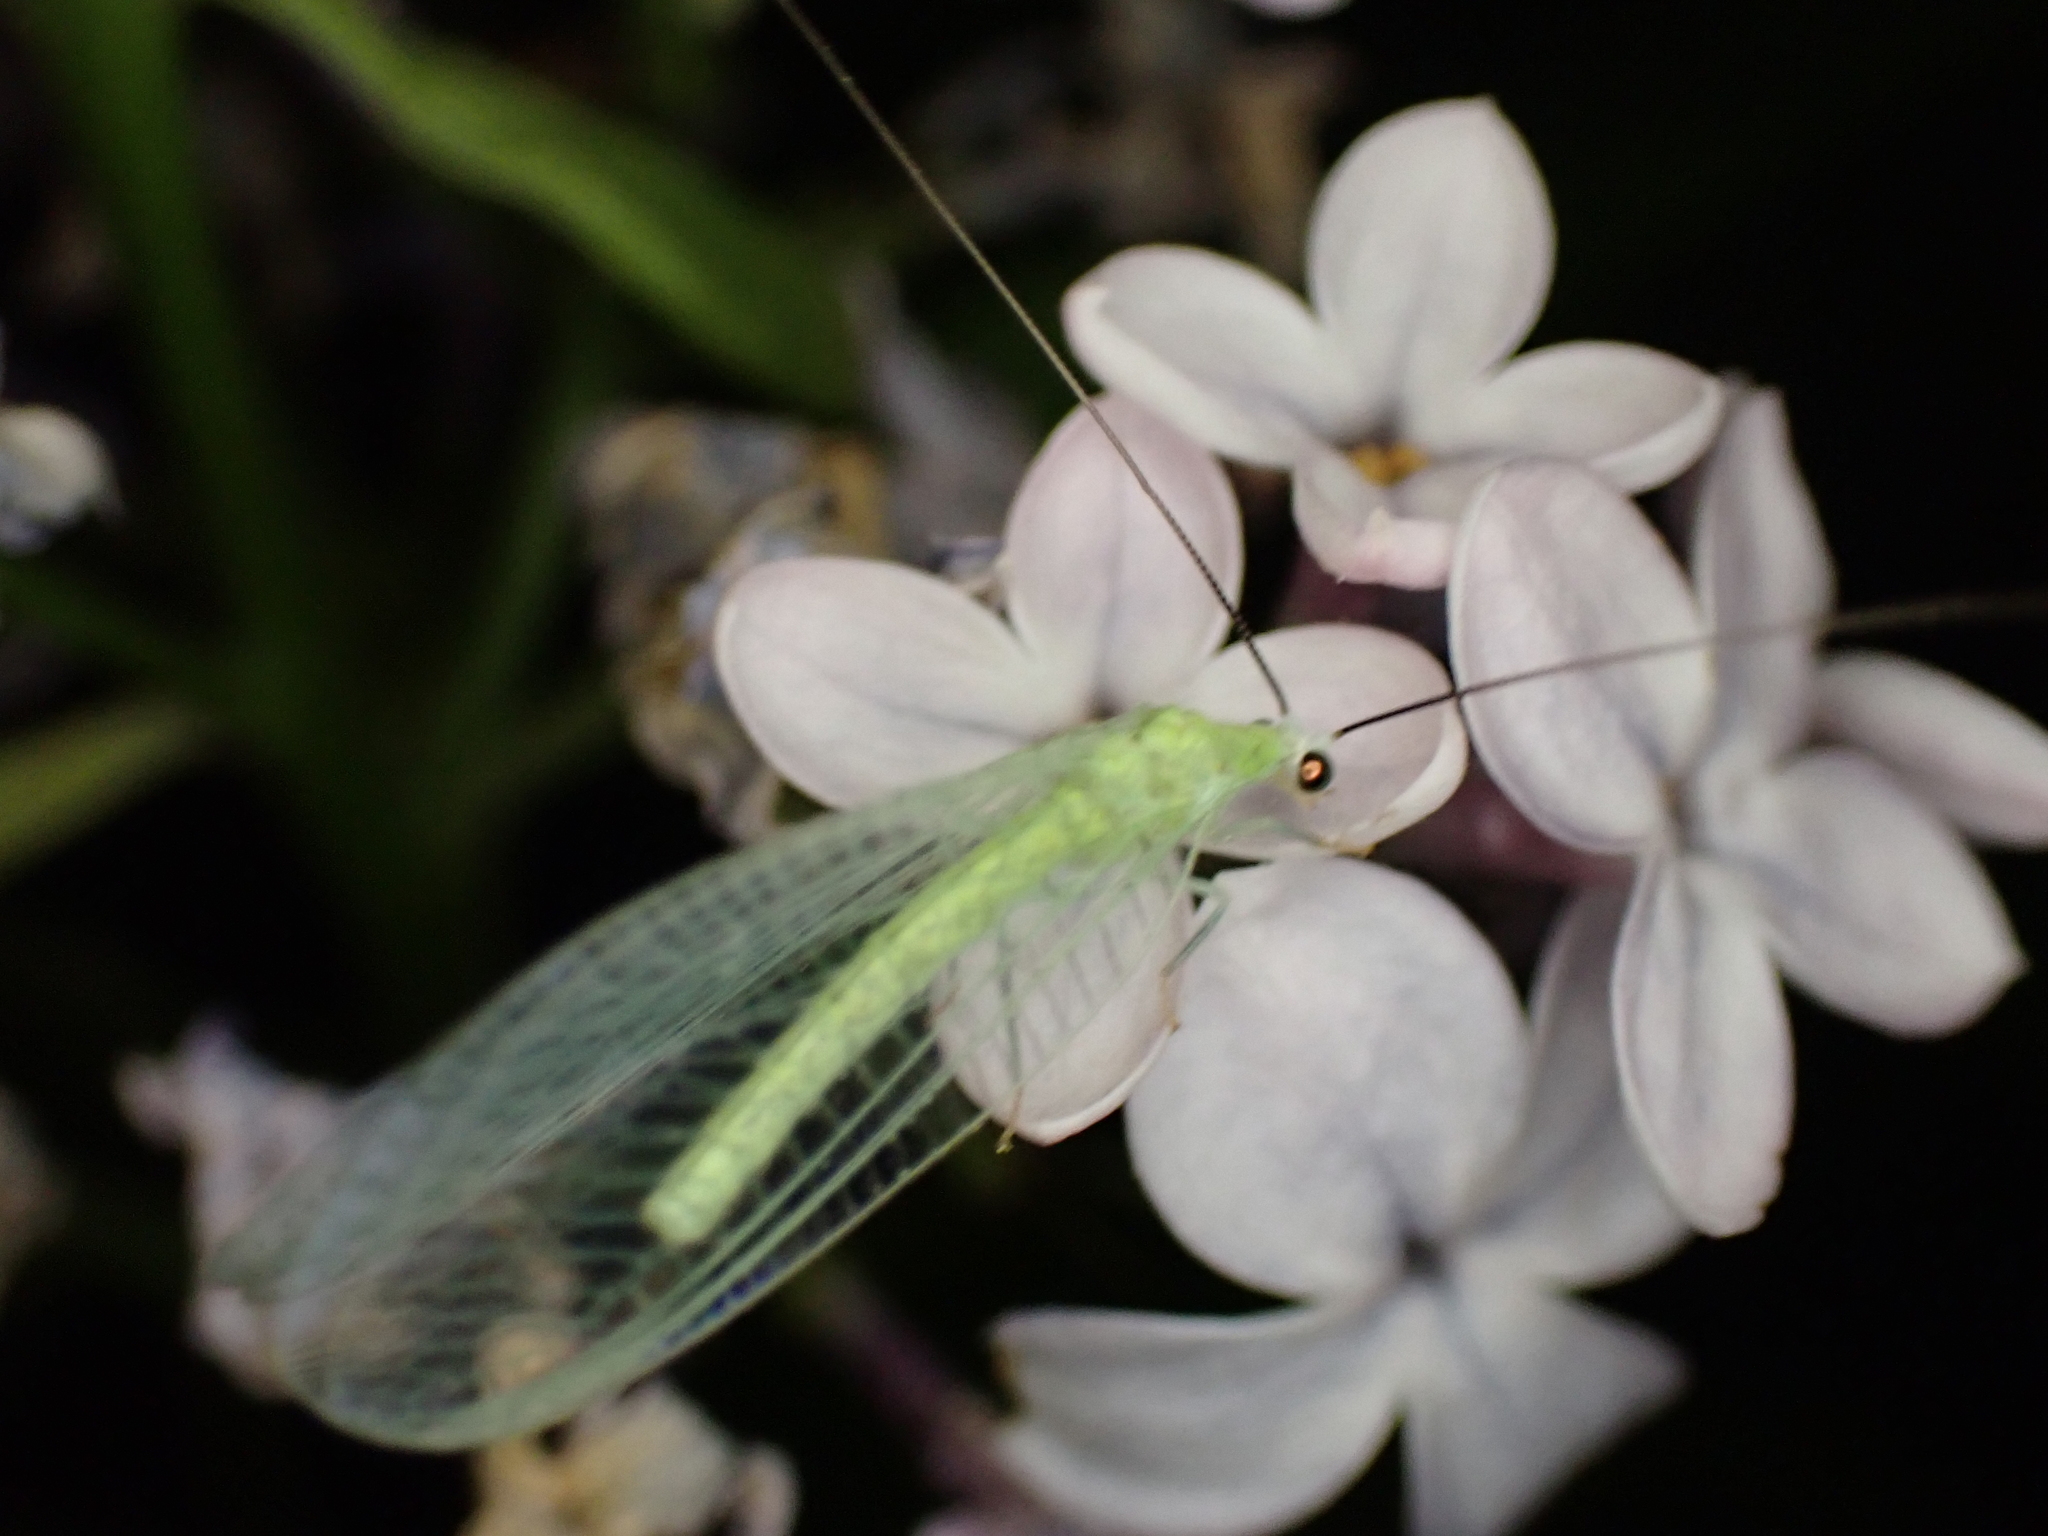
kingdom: Animalia
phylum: Arthropoda
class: Insecta
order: Neuroptera
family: Chrysopidae
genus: Chrysopa
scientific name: Chrysopa nigricornis
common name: Black-horned green lacewing
